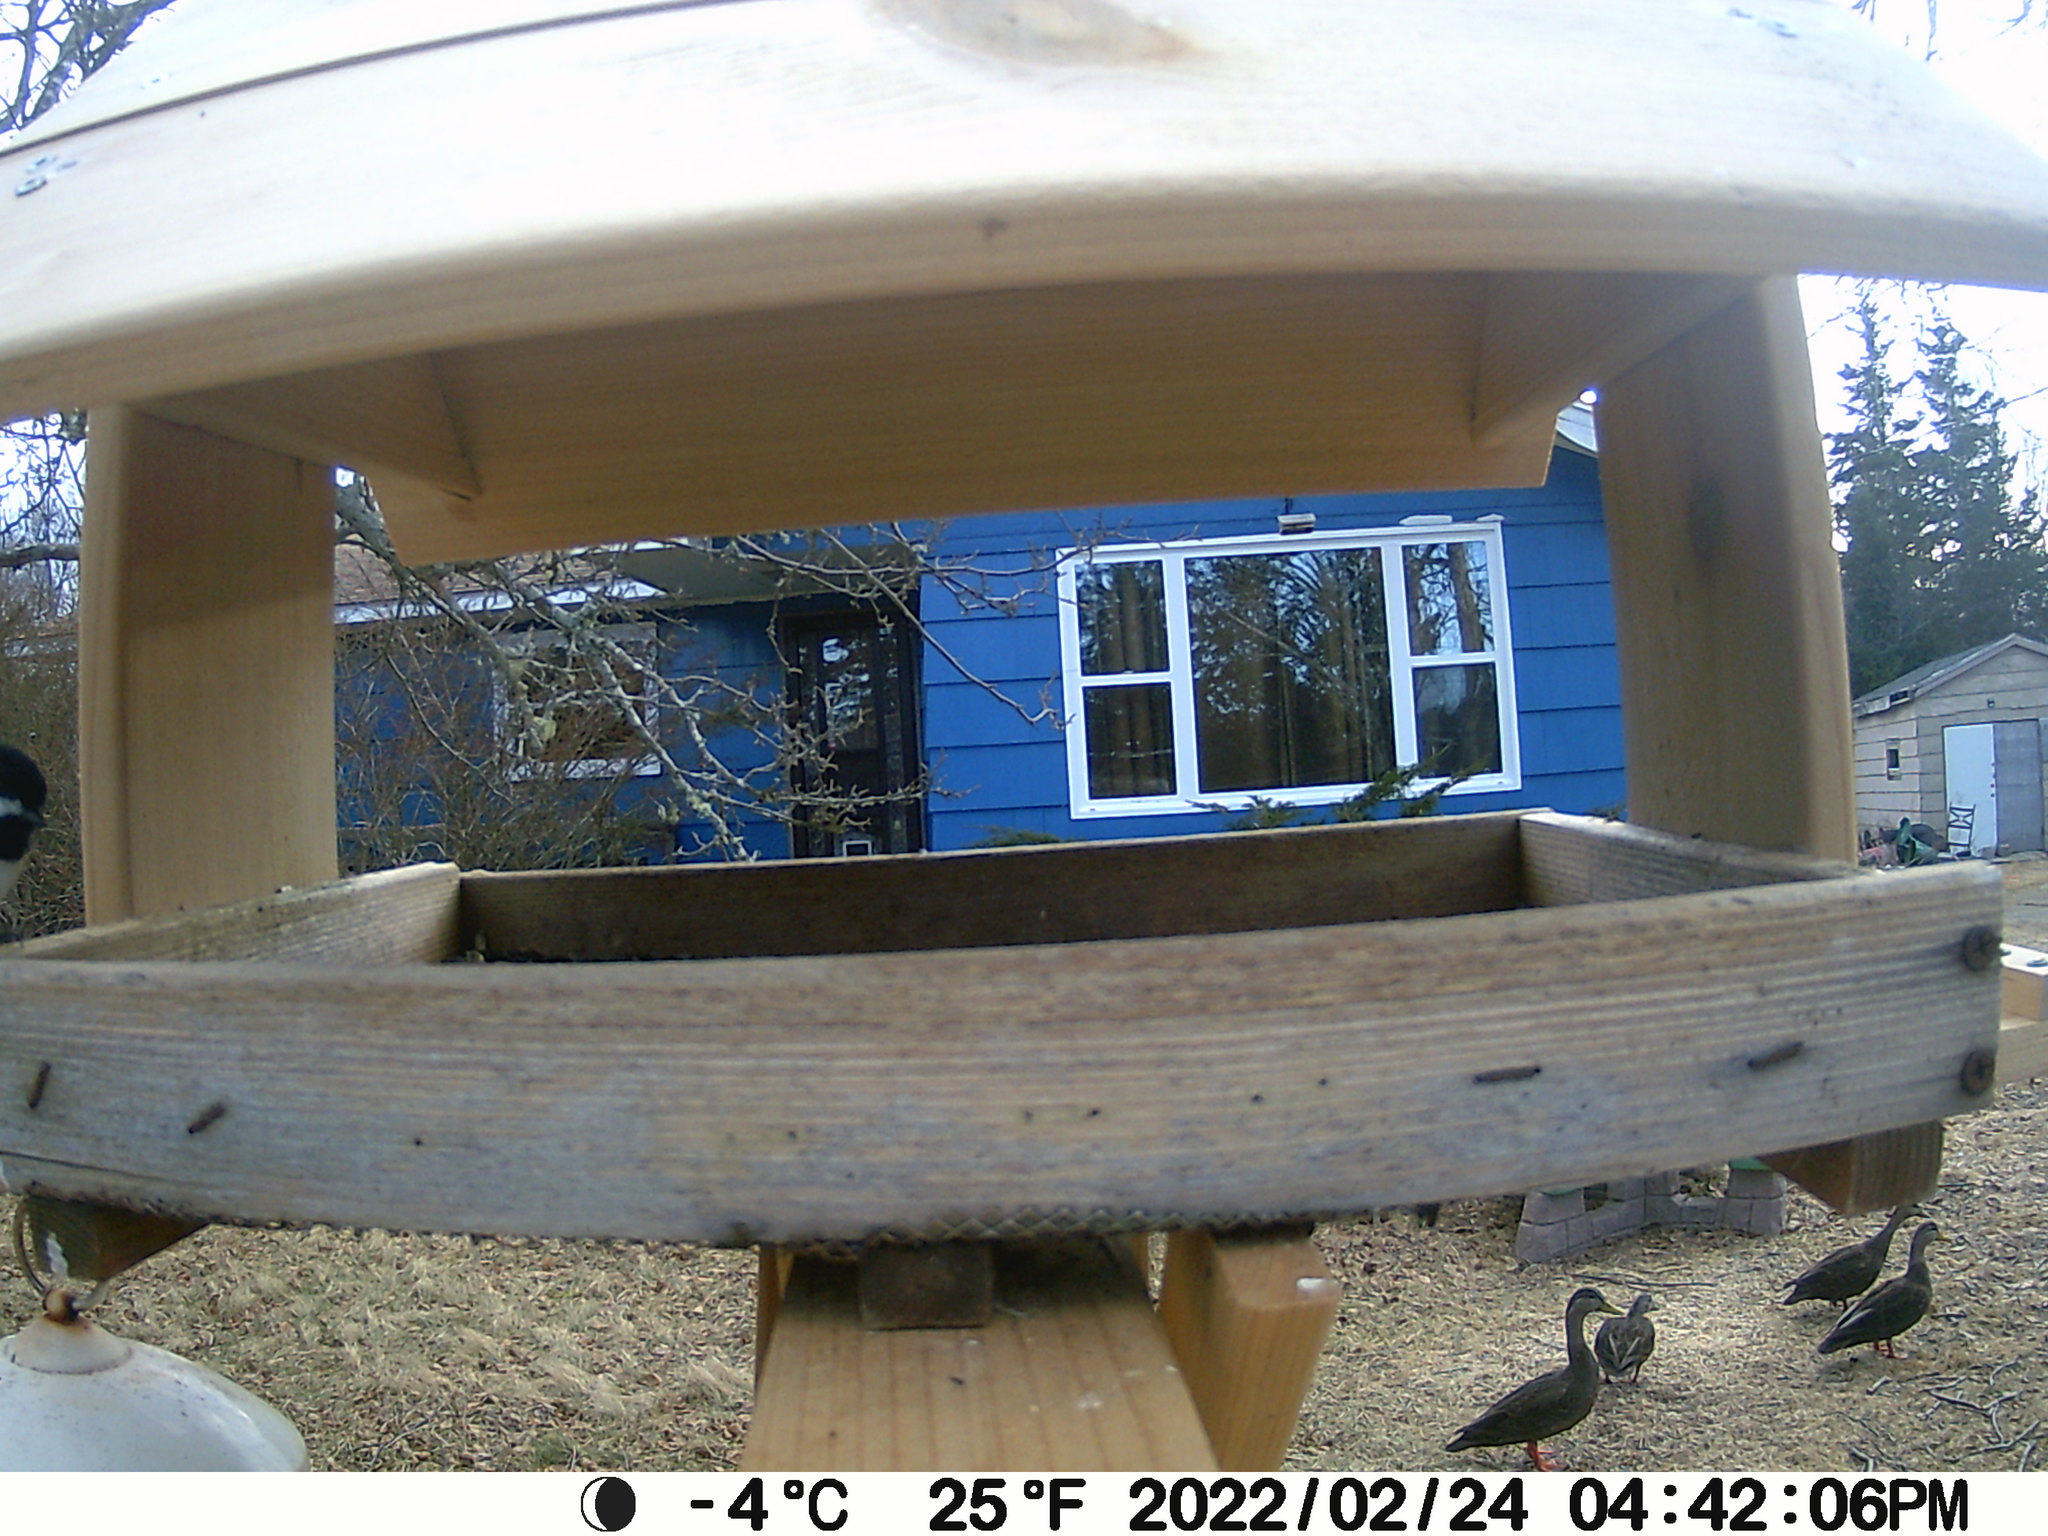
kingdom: Animalia
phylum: Chordata
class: Aves
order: Anseriformes
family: Anatidae
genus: Anas
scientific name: Anas rubripes
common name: American black duck
